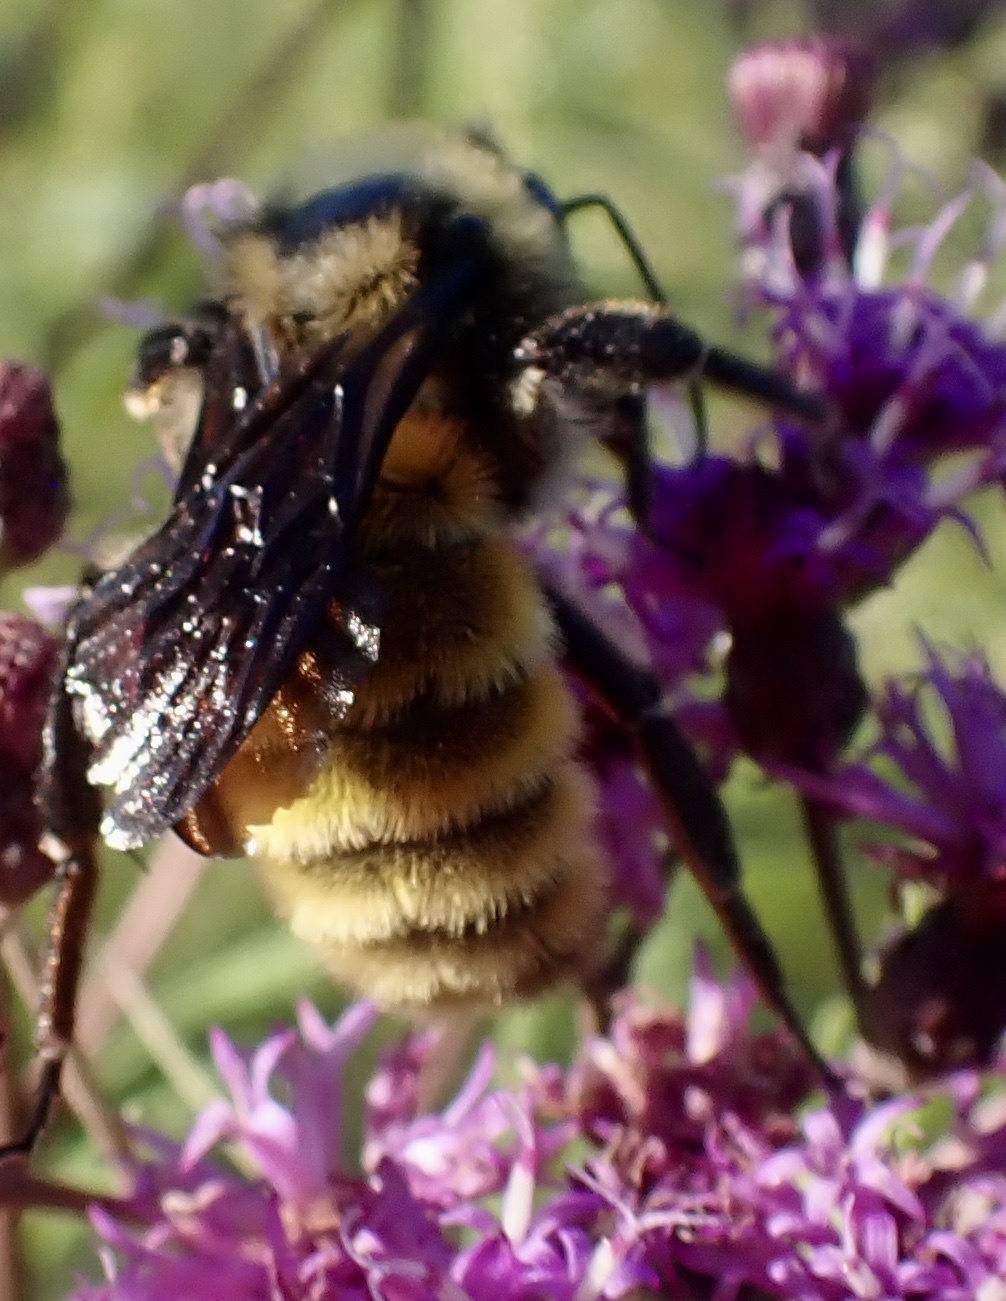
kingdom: Animalia
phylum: Arthropoda
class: Insecta
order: Hymenoptera
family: Apidae
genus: Bombus
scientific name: Bombus pensylvanicus
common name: Bumble bee
